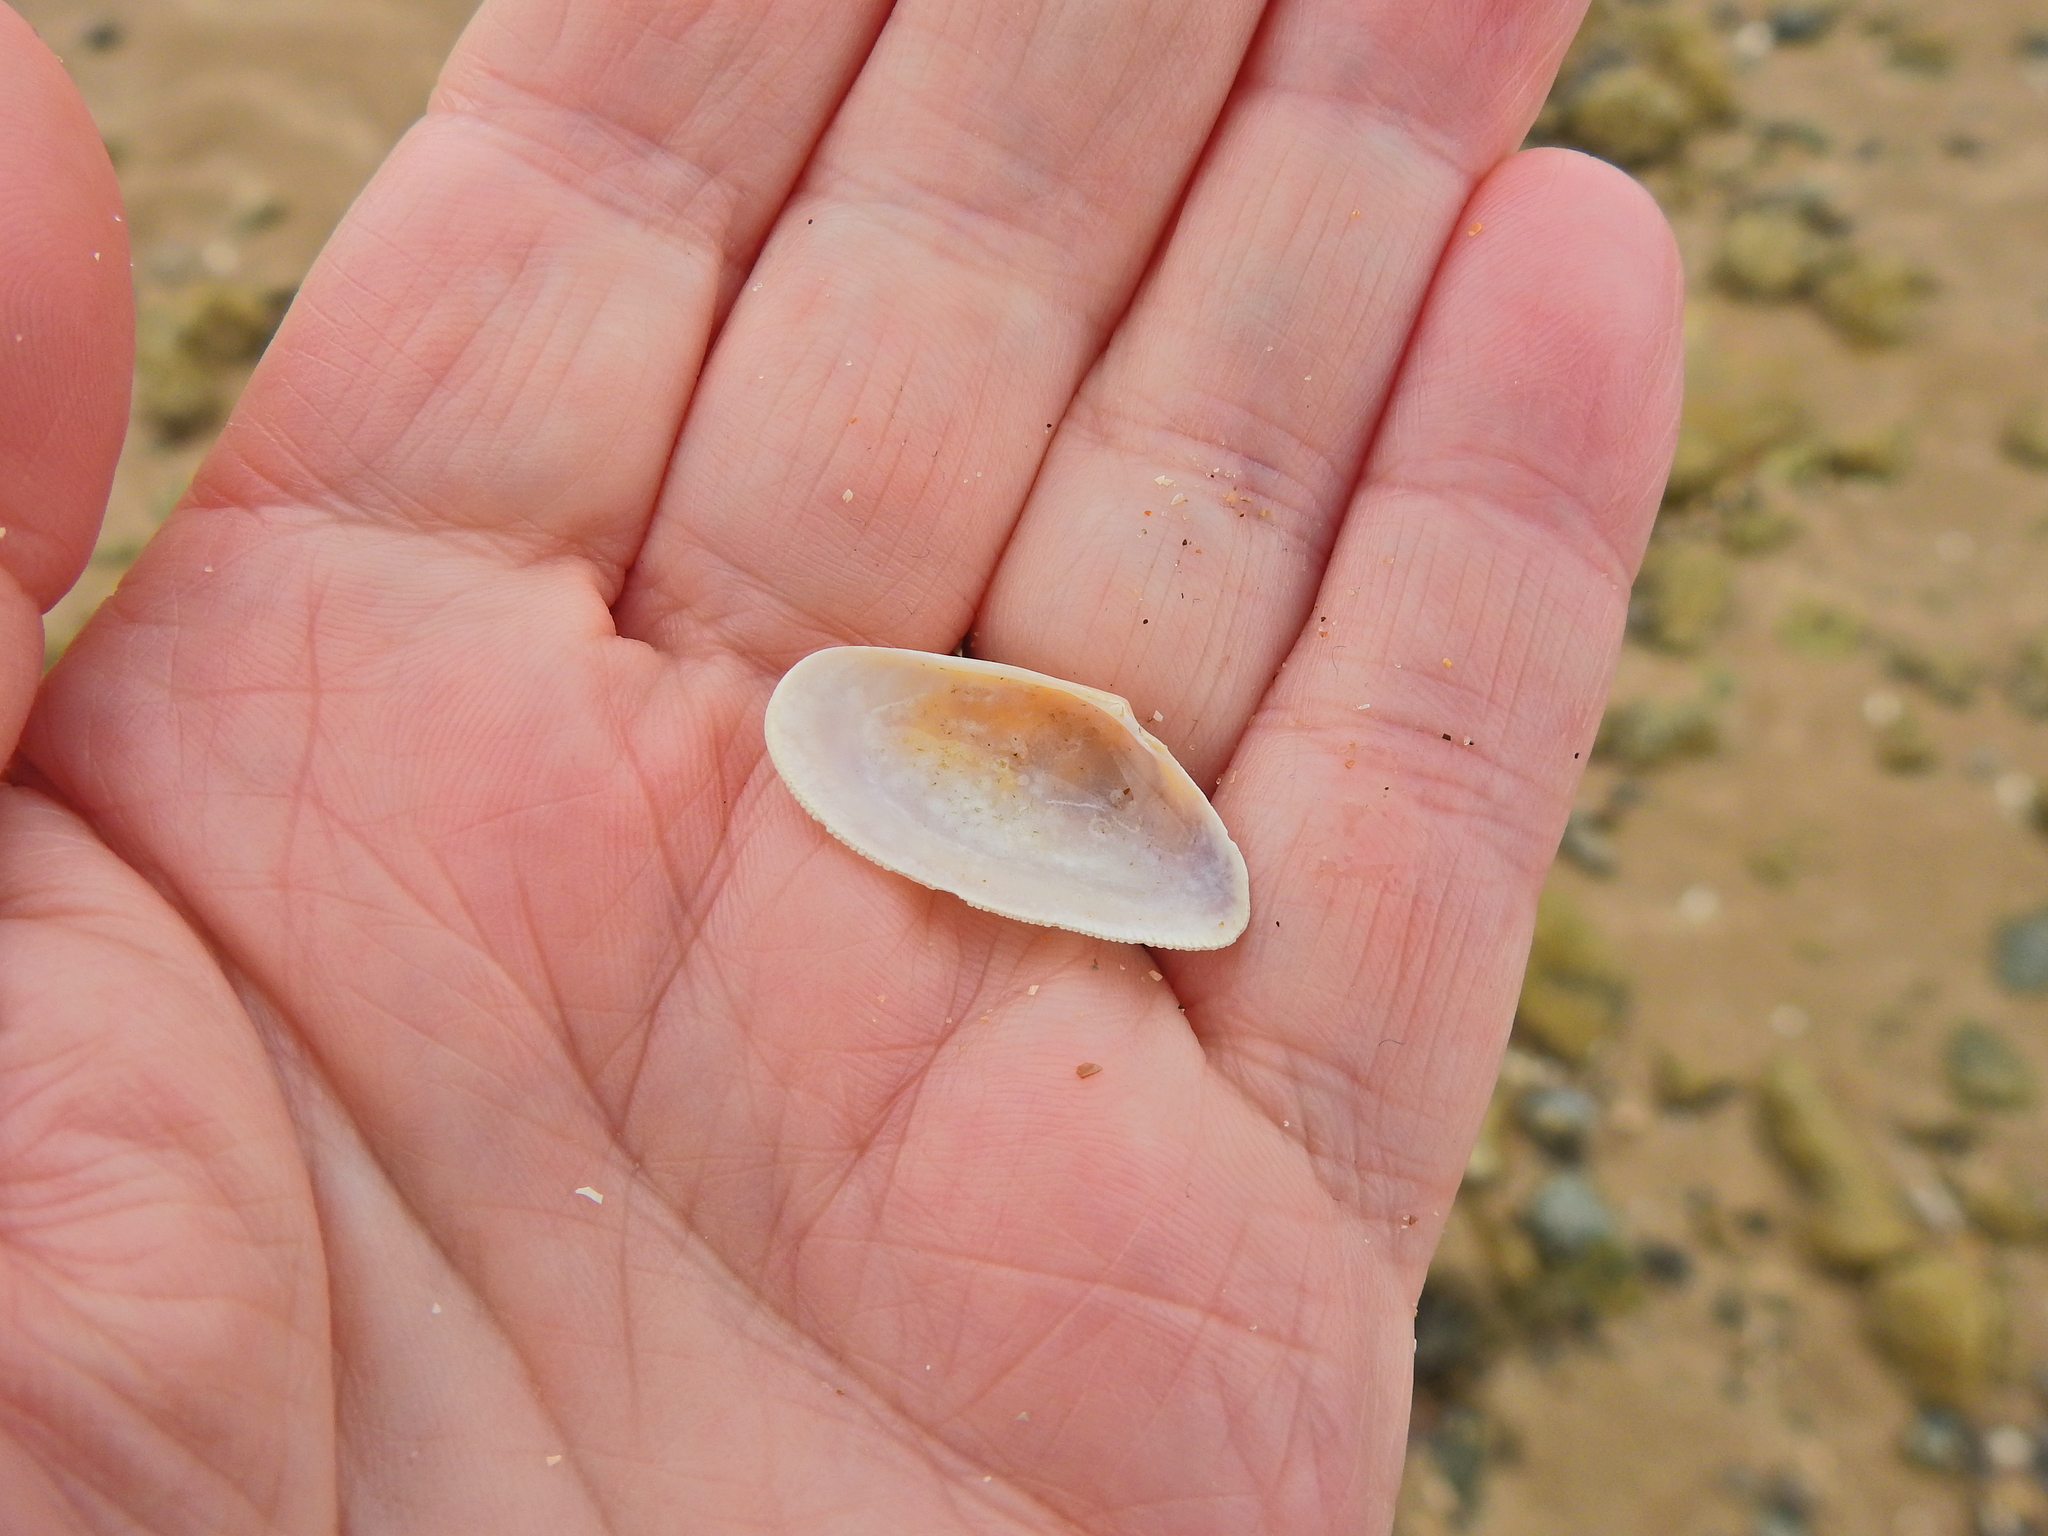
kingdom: Animalia
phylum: Mollusca
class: Bivalvia
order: Cardiida
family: Donacidae
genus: Donax
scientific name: Donax vittatus
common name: Banded wedge-shell
